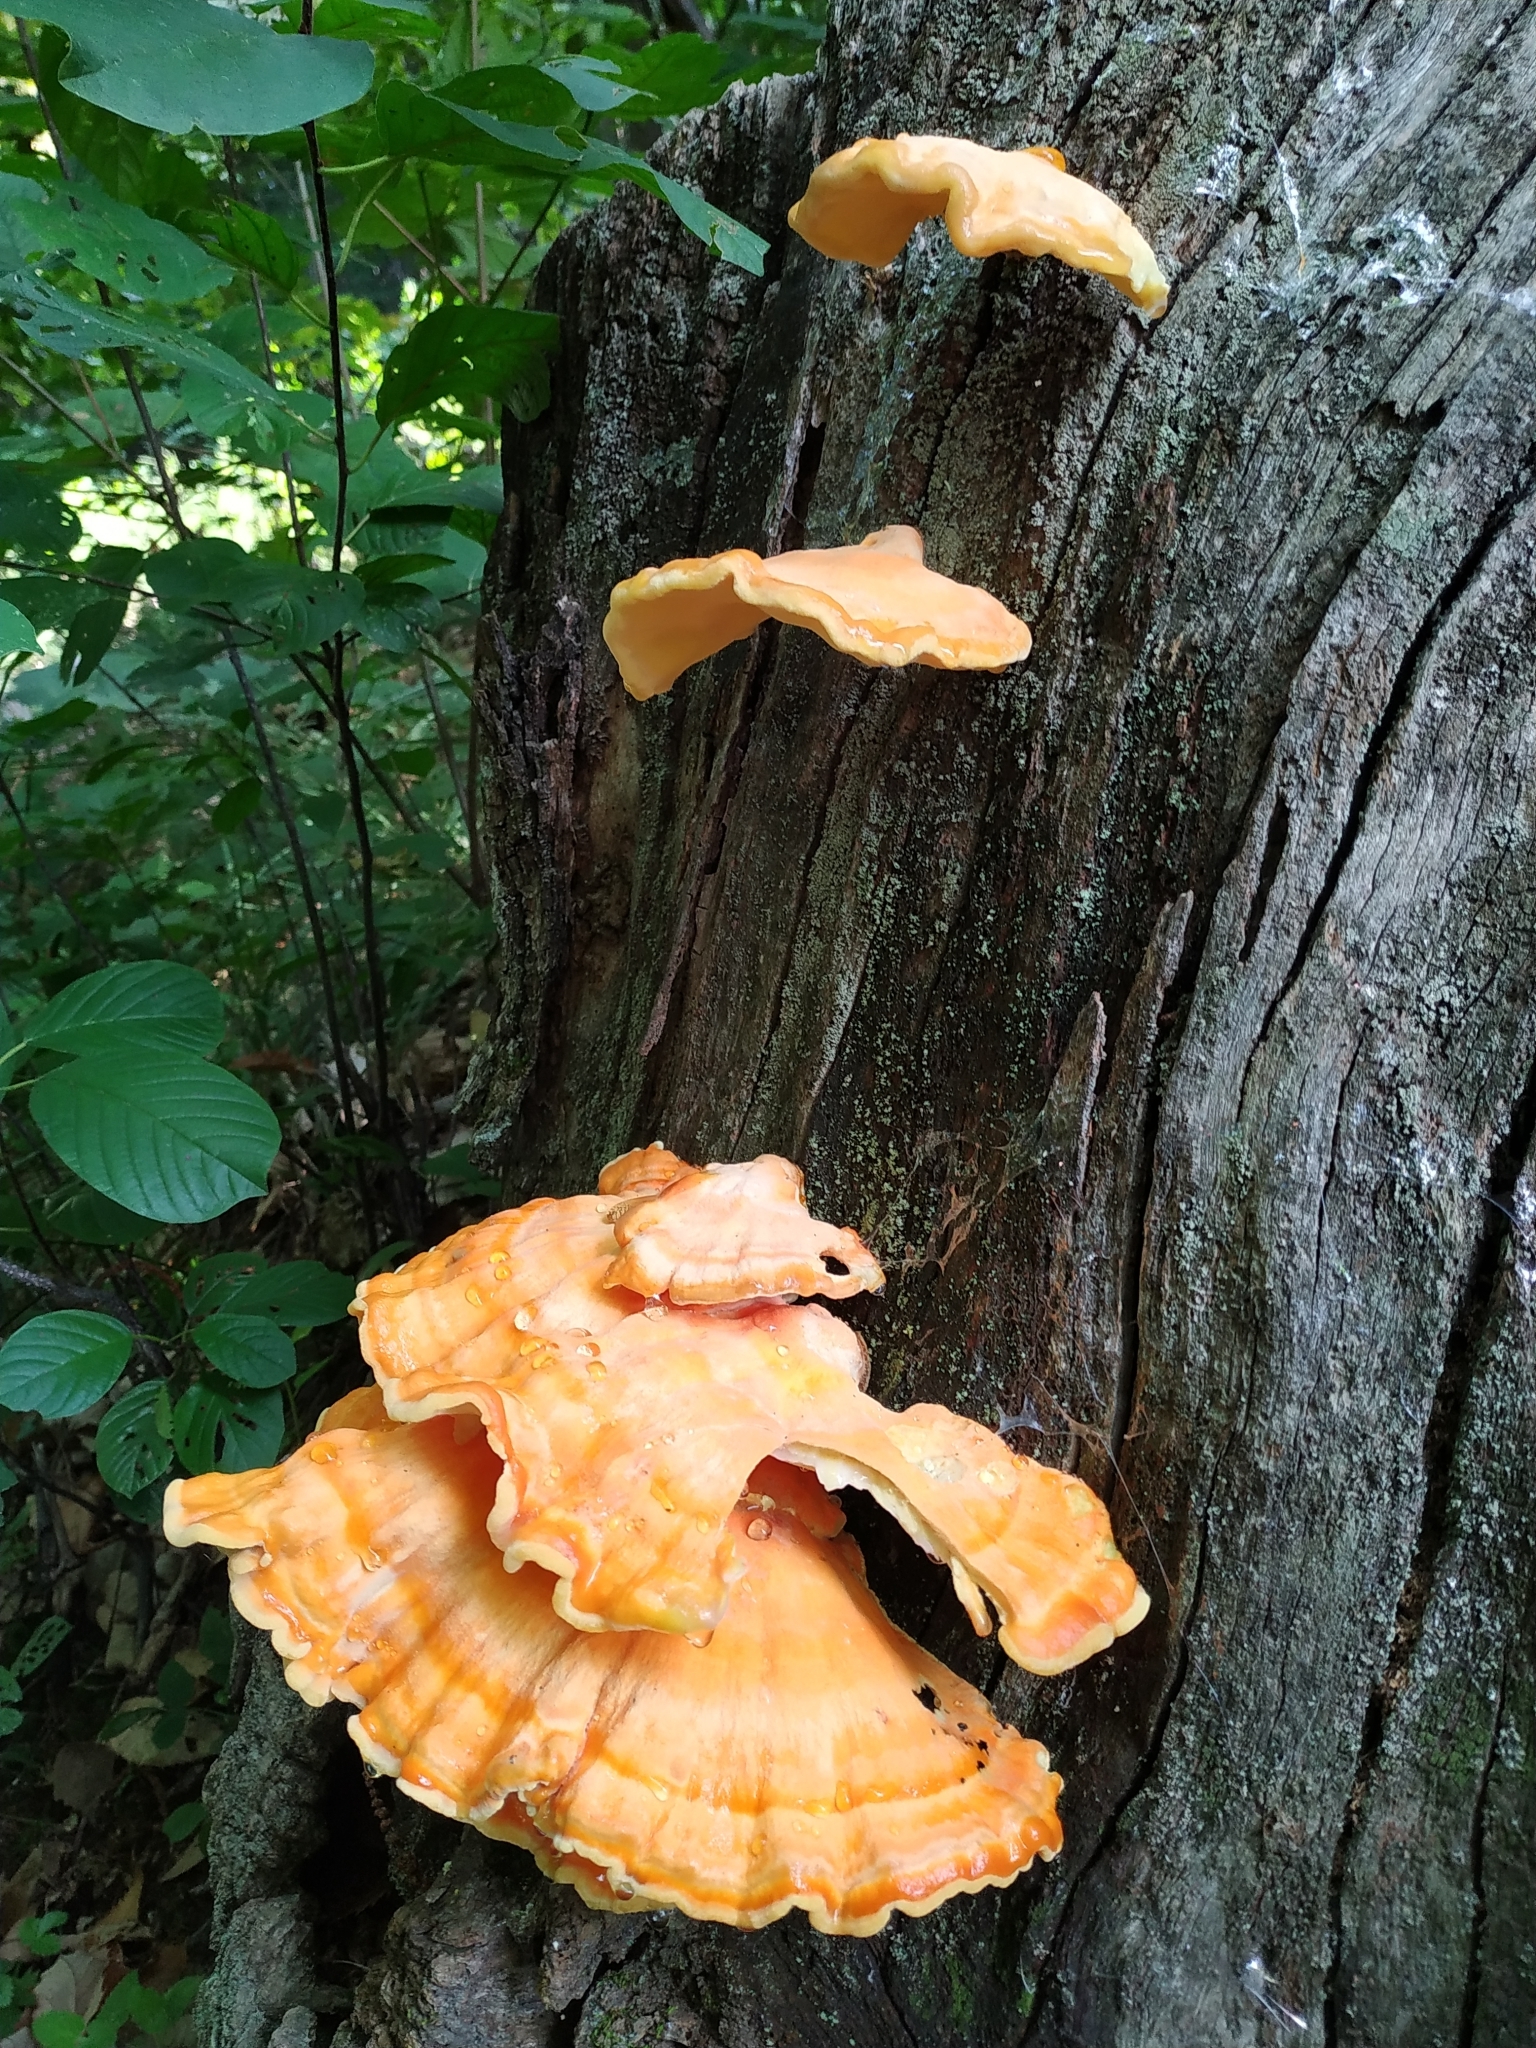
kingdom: Fungi
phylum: Basidiomycota
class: Agaricomycetes
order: Polyporales
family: Laetiporaceae
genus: Laetiporus
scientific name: Laetiporus sulphureus
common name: Chicken of the woods
